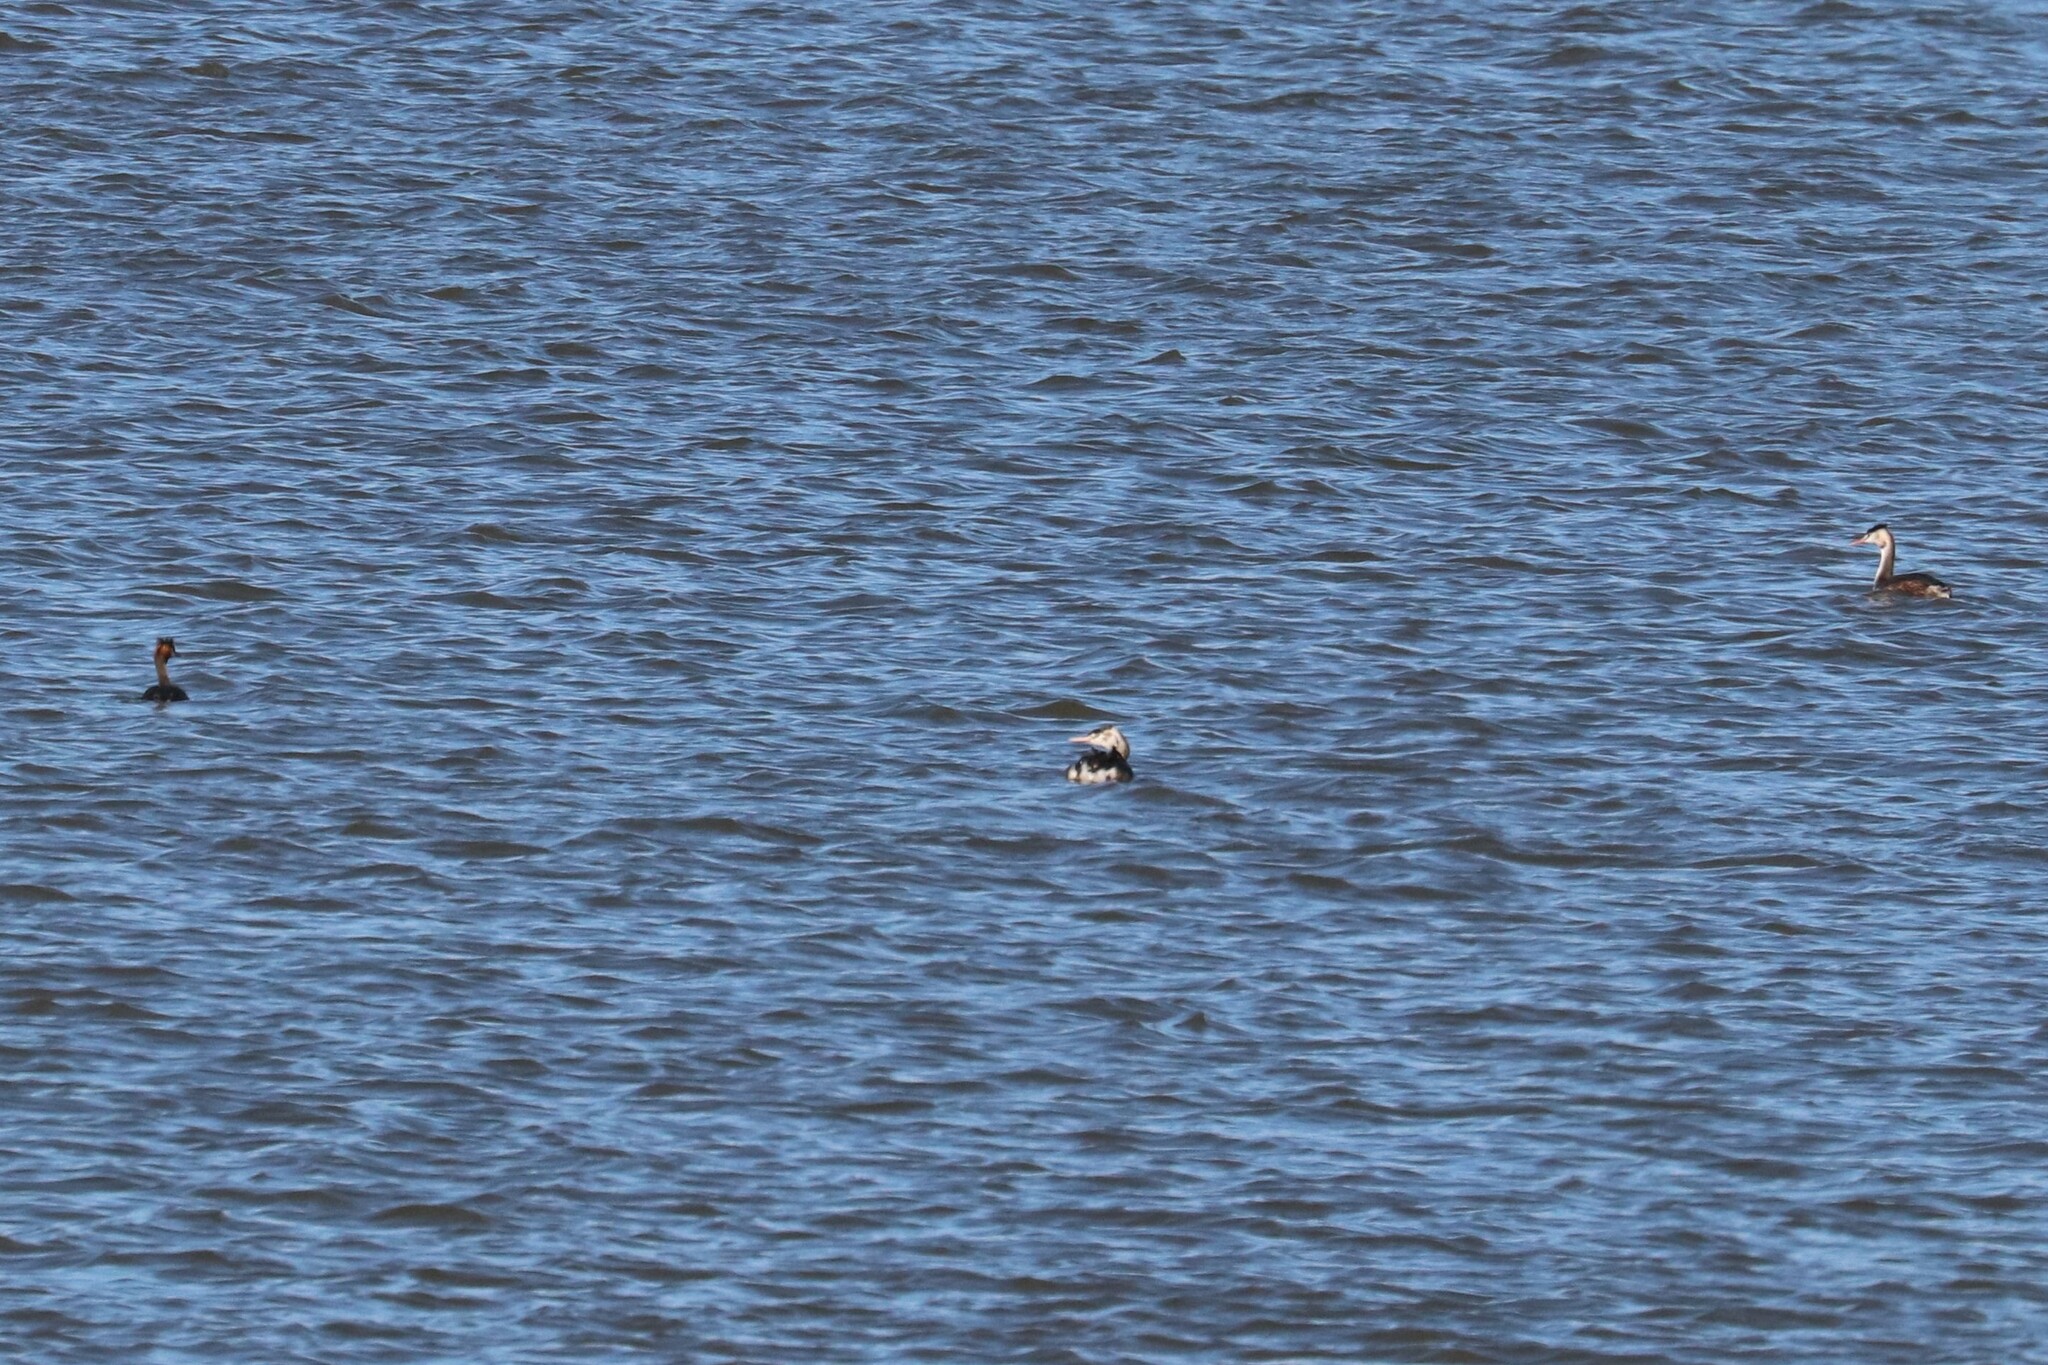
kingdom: Animalia
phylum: Chordata
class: Aves
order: Podicipediformes
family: Podicipedidae
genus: Podiceps
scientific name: Podiceps cristatus
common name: Great crested grebe
